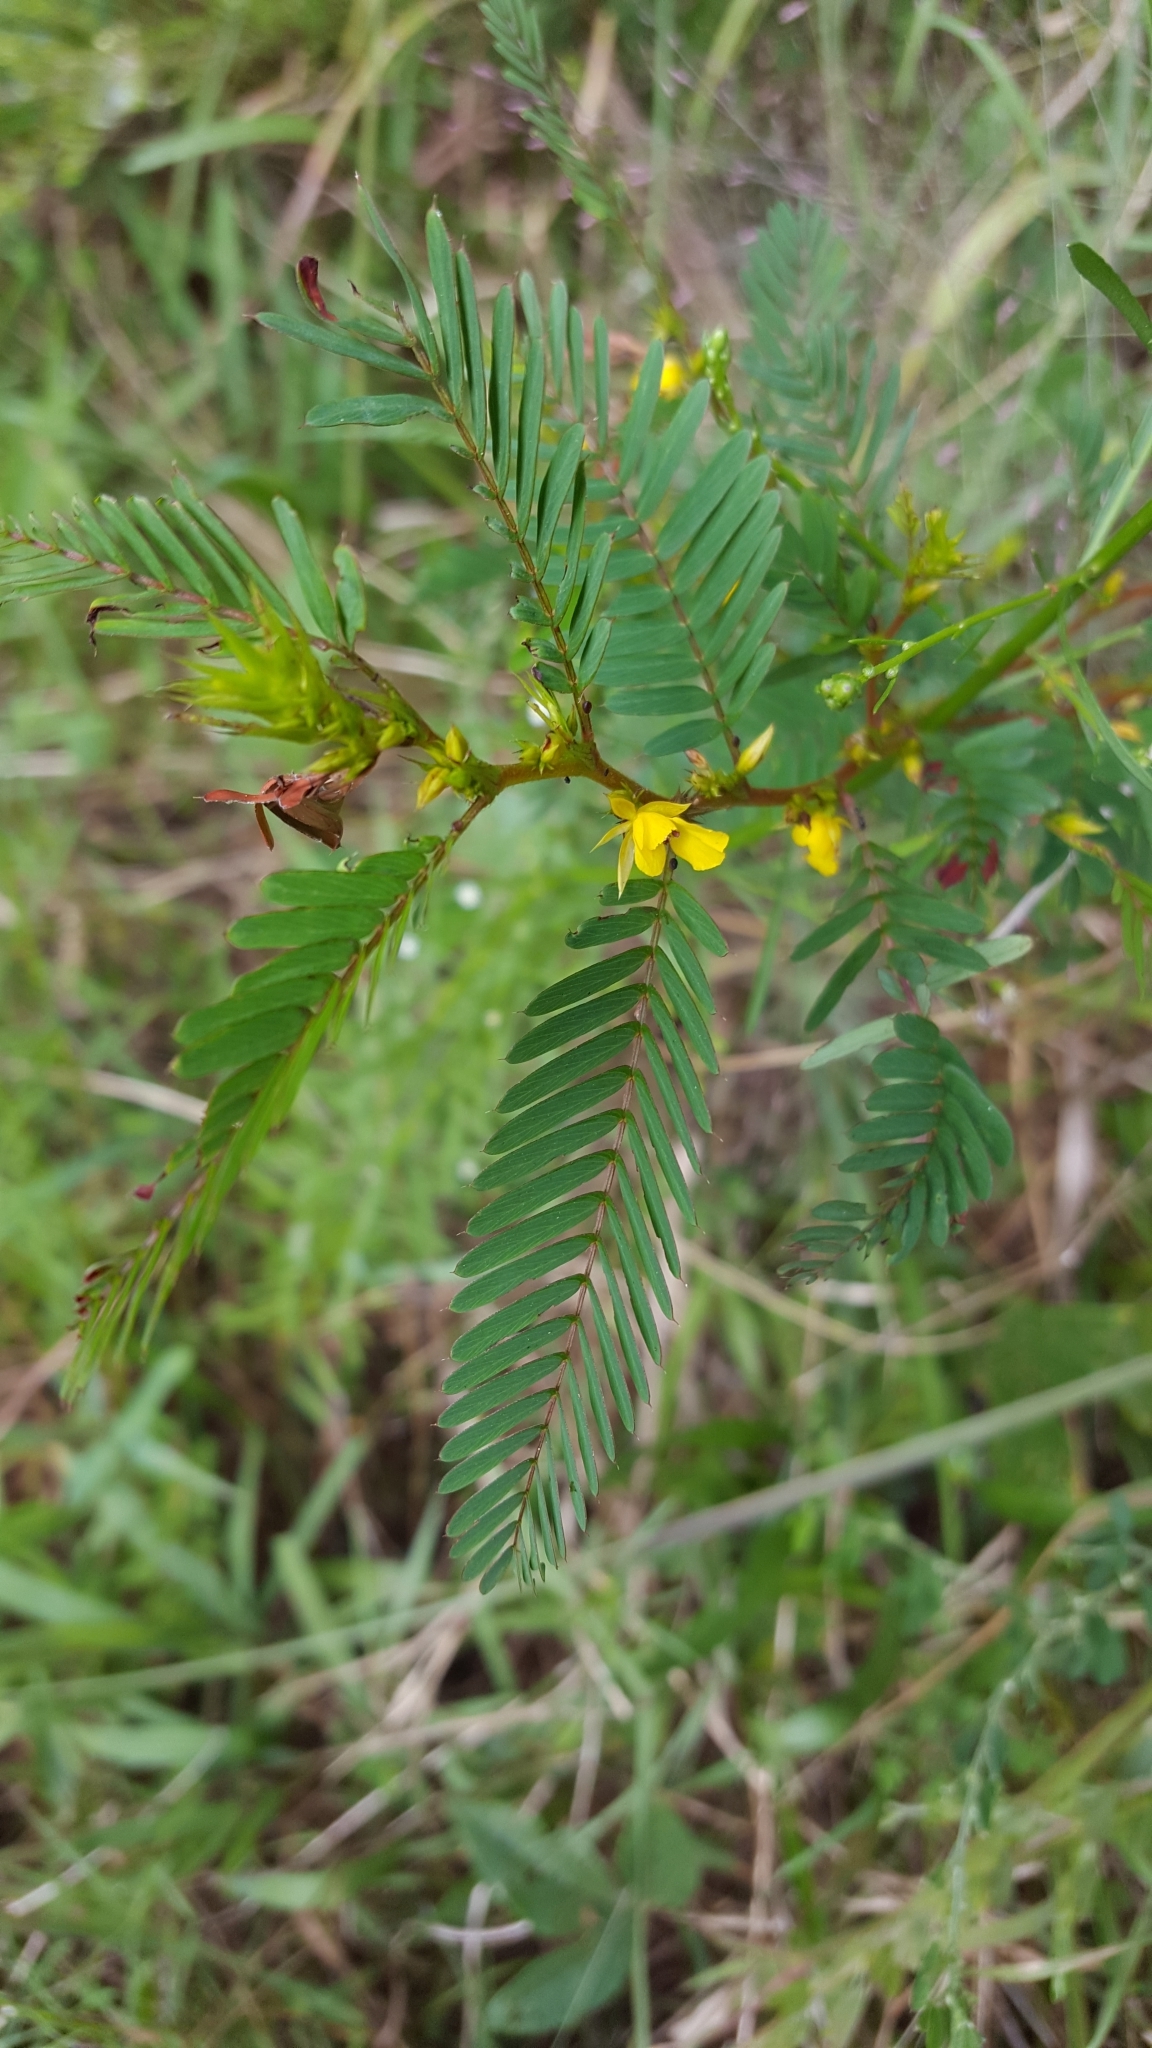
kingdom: Plantae
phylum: Tracheophyta
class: Magnoliopsida
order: Fabales
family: Fabaceae
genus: Chamaecrista
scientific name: Chamaecrista fasciculata
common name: Golden cassia
